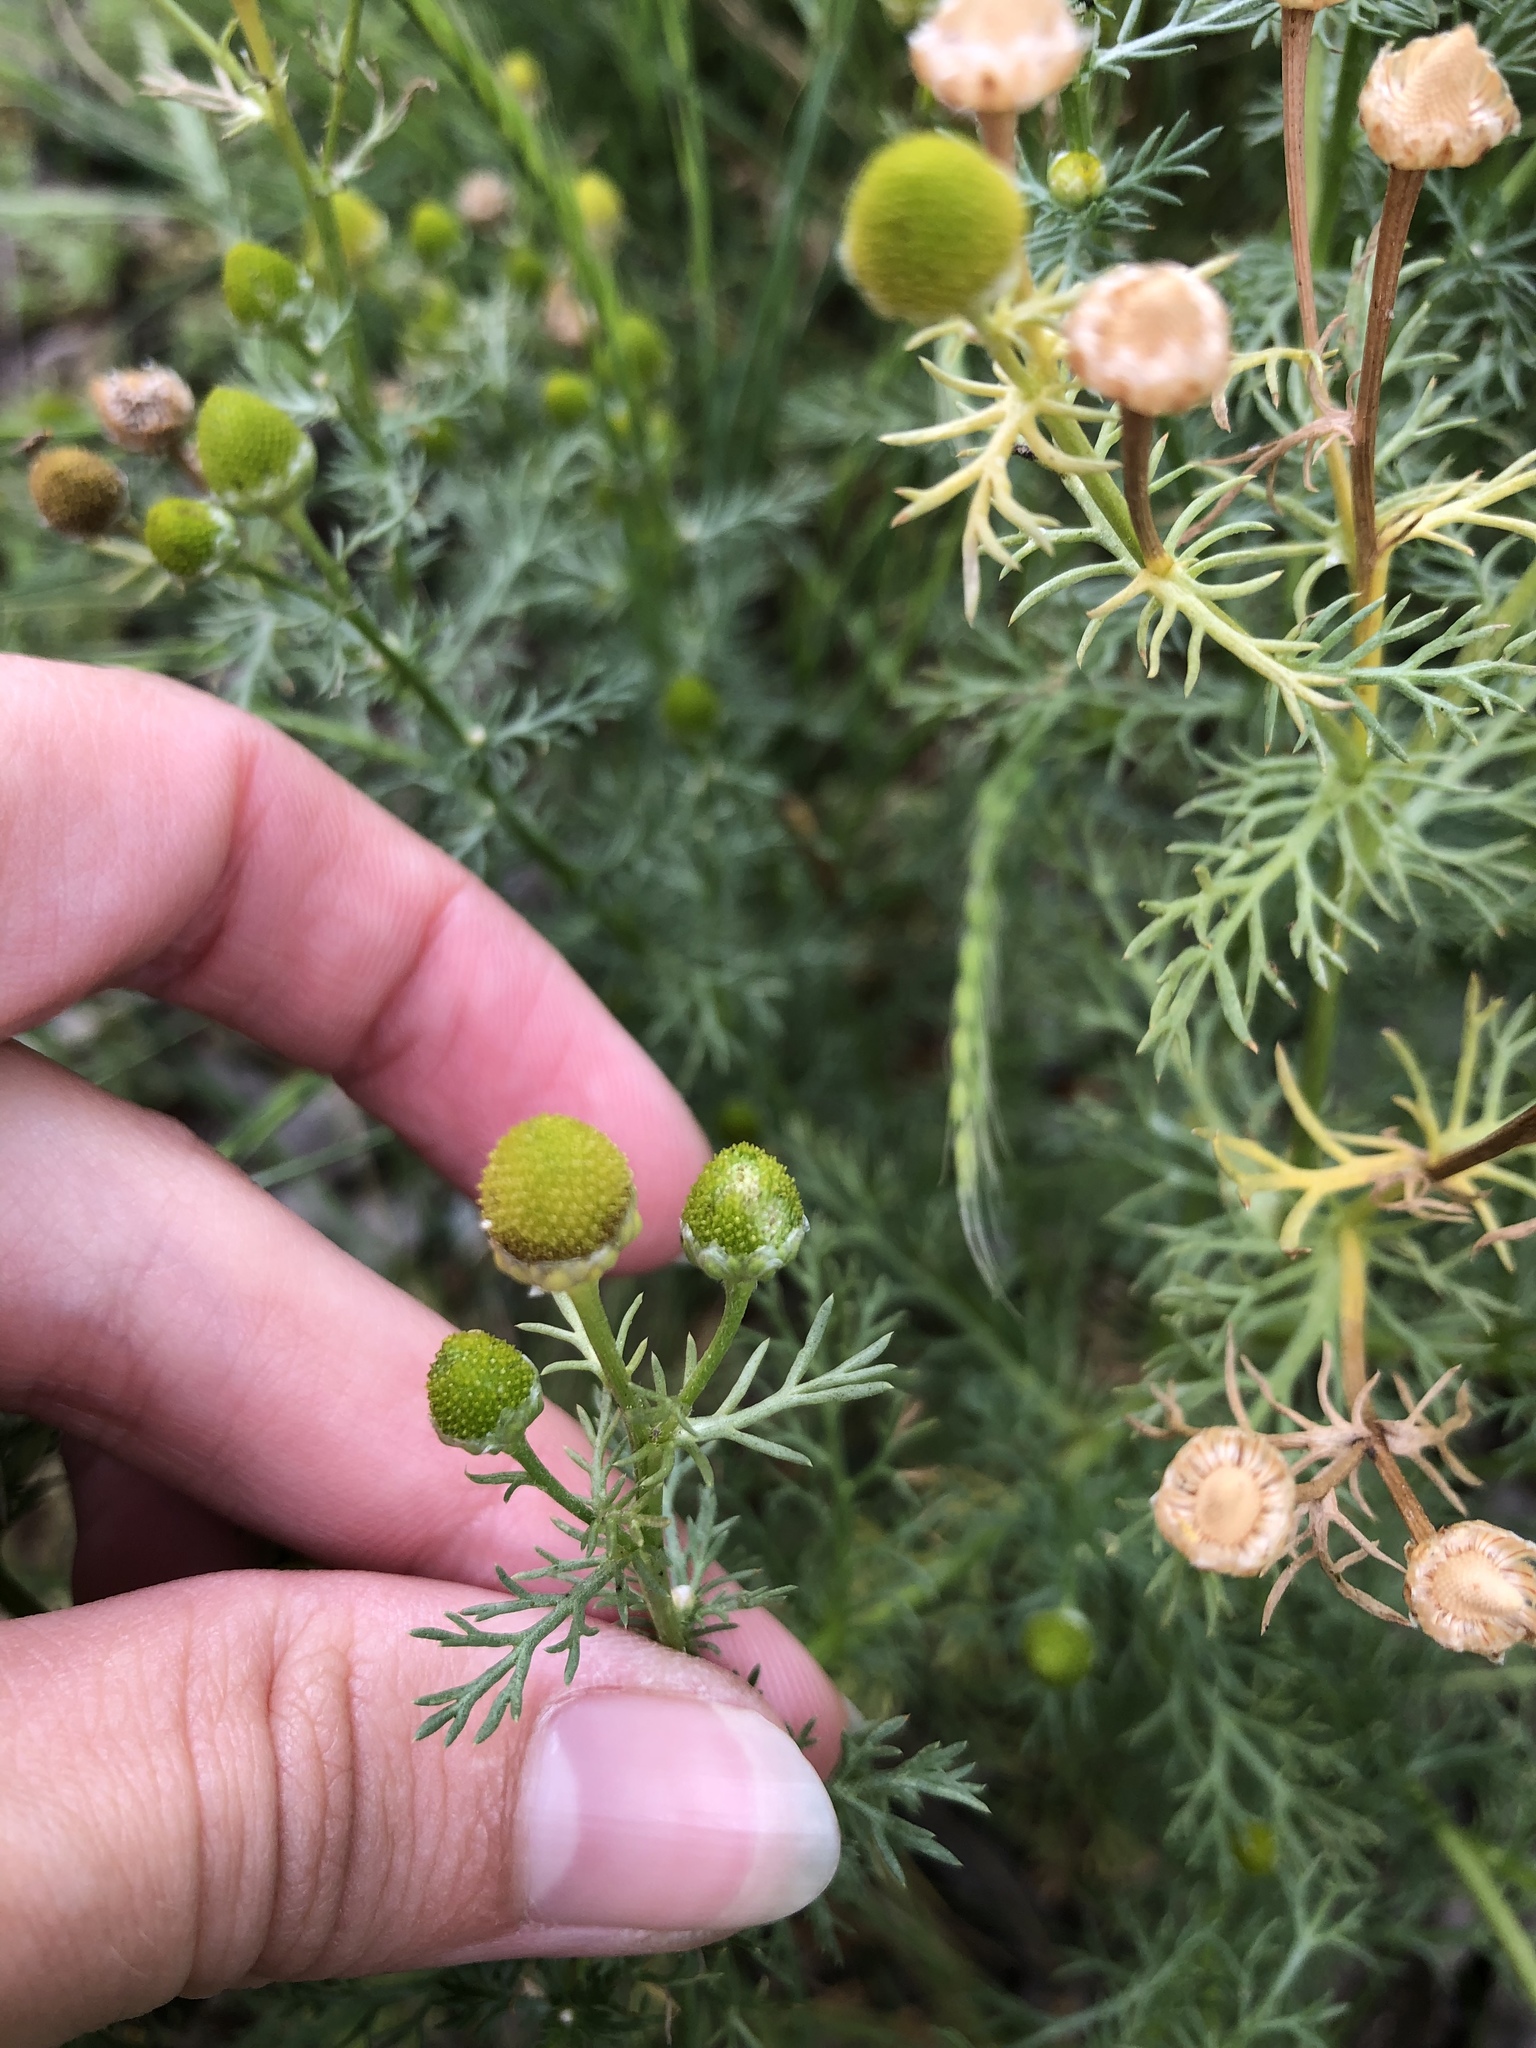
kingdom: Plantae
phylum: Tracheophyta
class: Magnoliopsida
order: Asterales
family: Asteraceae
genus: Matricaria
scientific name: Matricaria discoidea
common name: Disc mayweed
